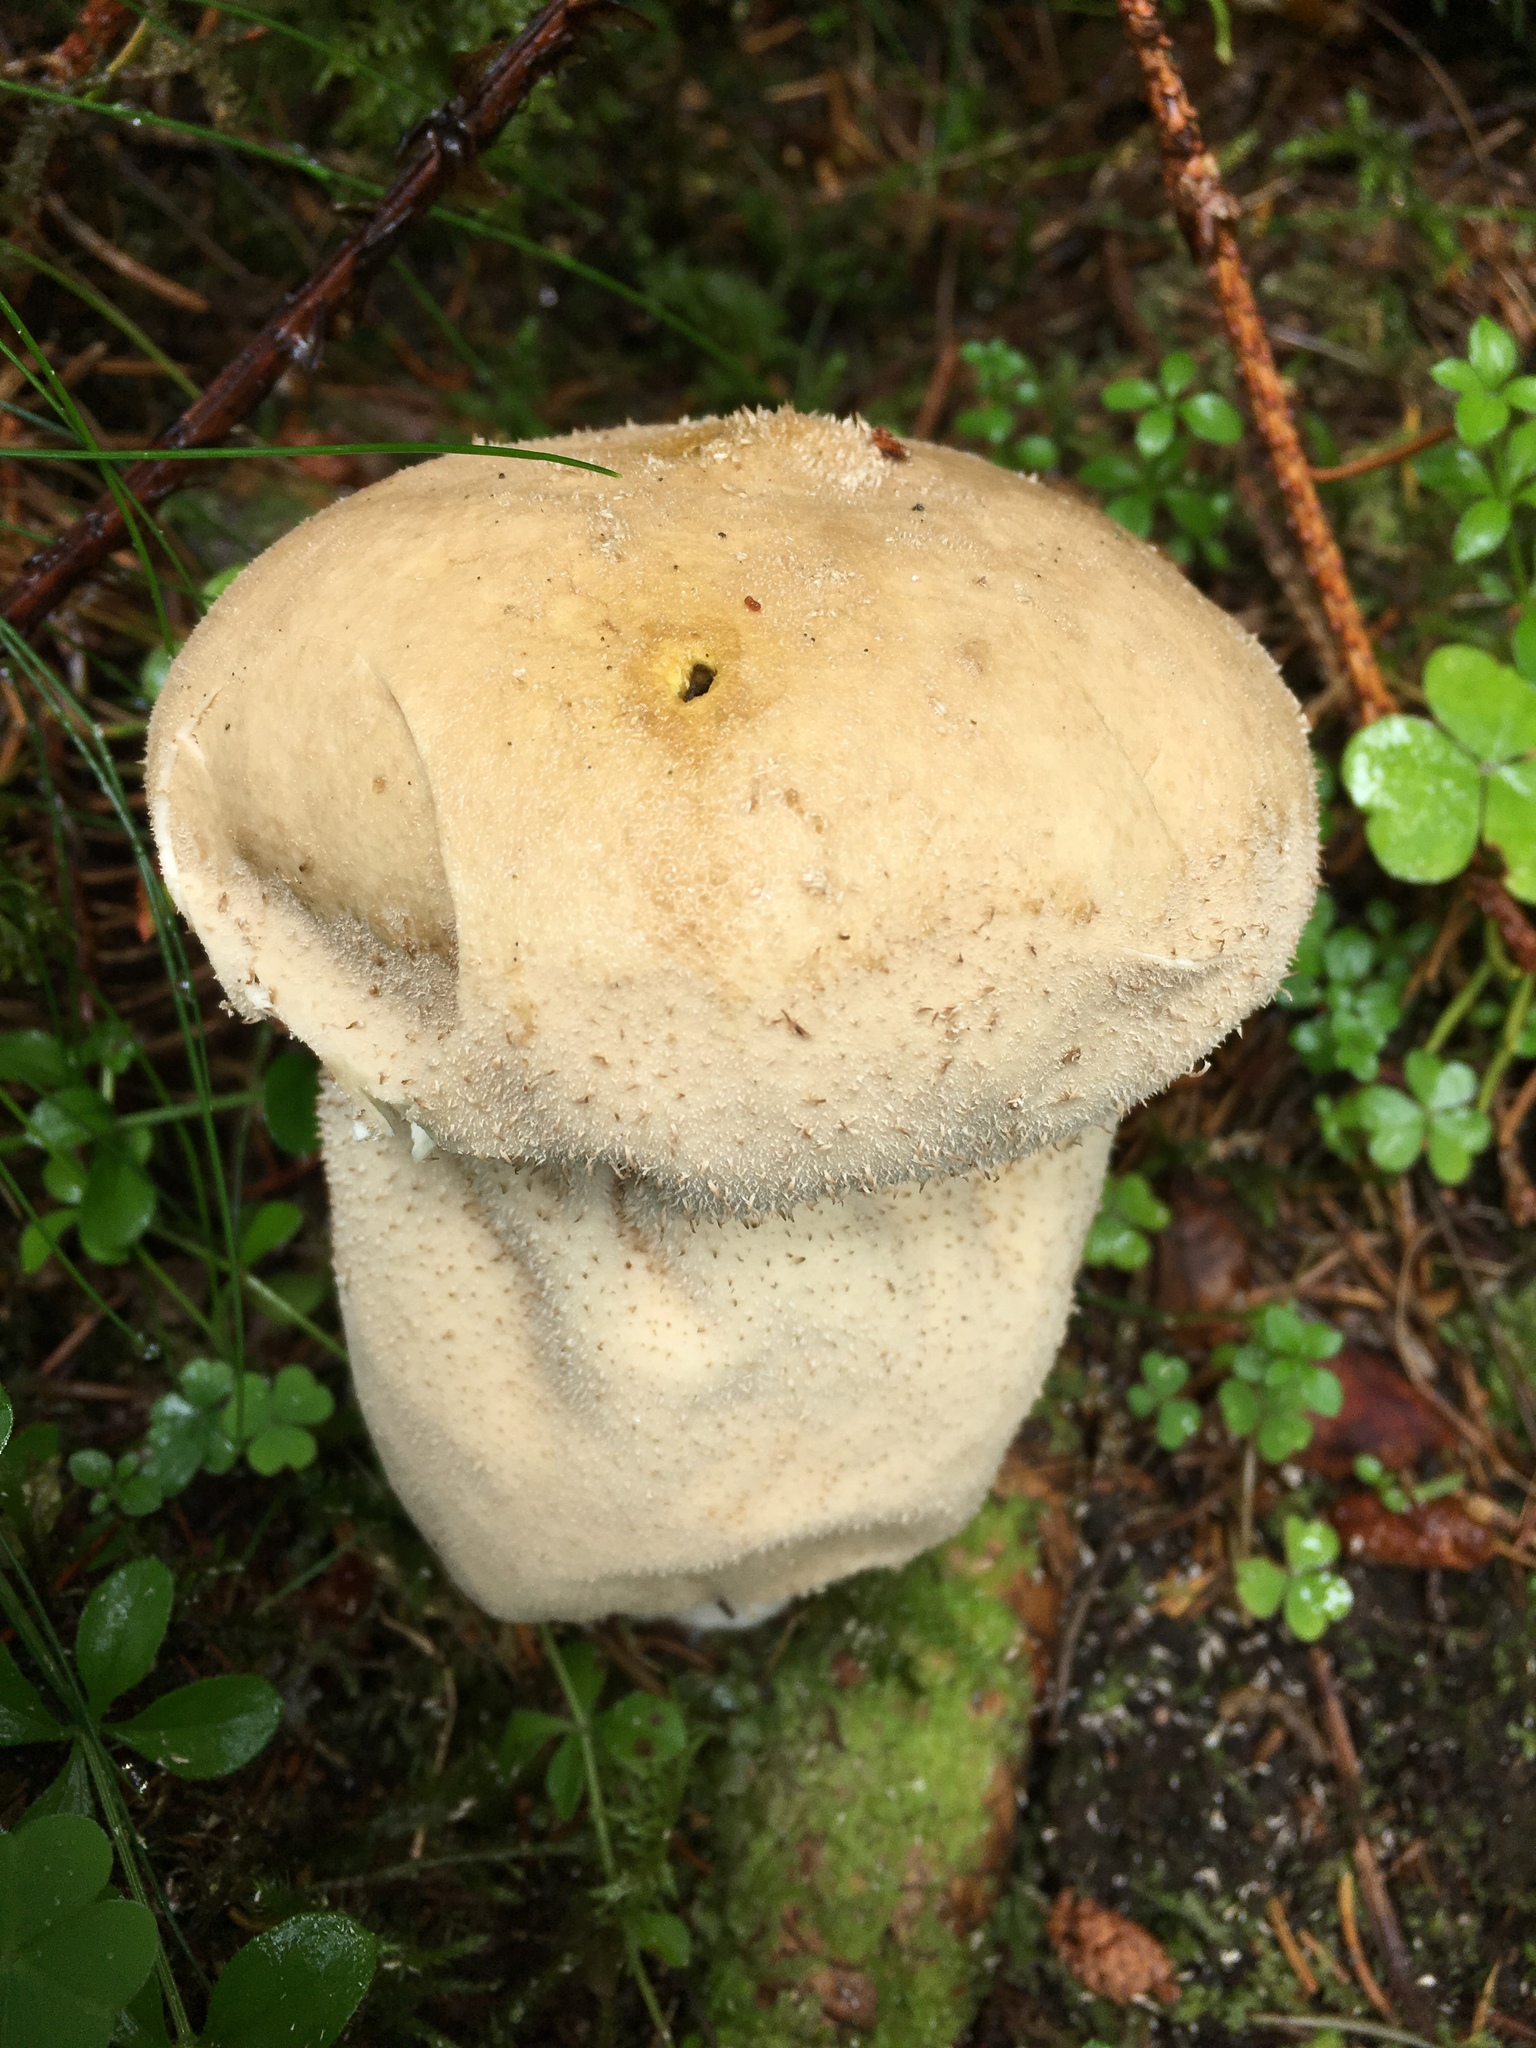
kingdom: Fungi
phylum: Basidiomycota
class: Agaricomycetes
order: Agaricales
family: Lycoperdaceae
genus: Lycoperdon
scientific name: Lycoperdon excipuliforme
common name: Pestle puffball
